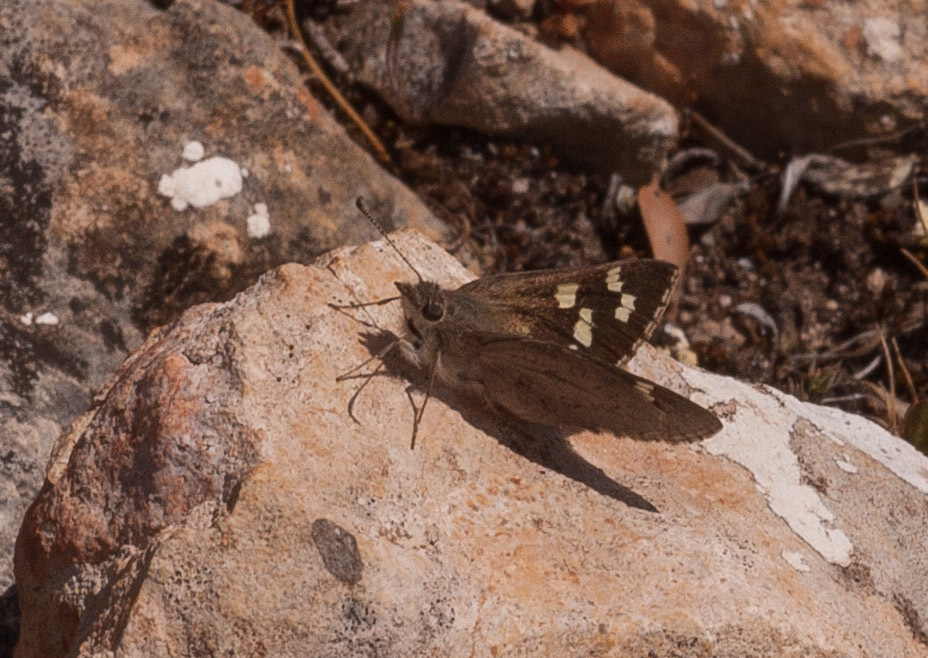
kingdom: Animalia
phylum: Arthropoda
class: Insecta
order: Lepidoptera
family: Hesperiidae
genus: Antipodia
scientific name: Antipodia atralba
